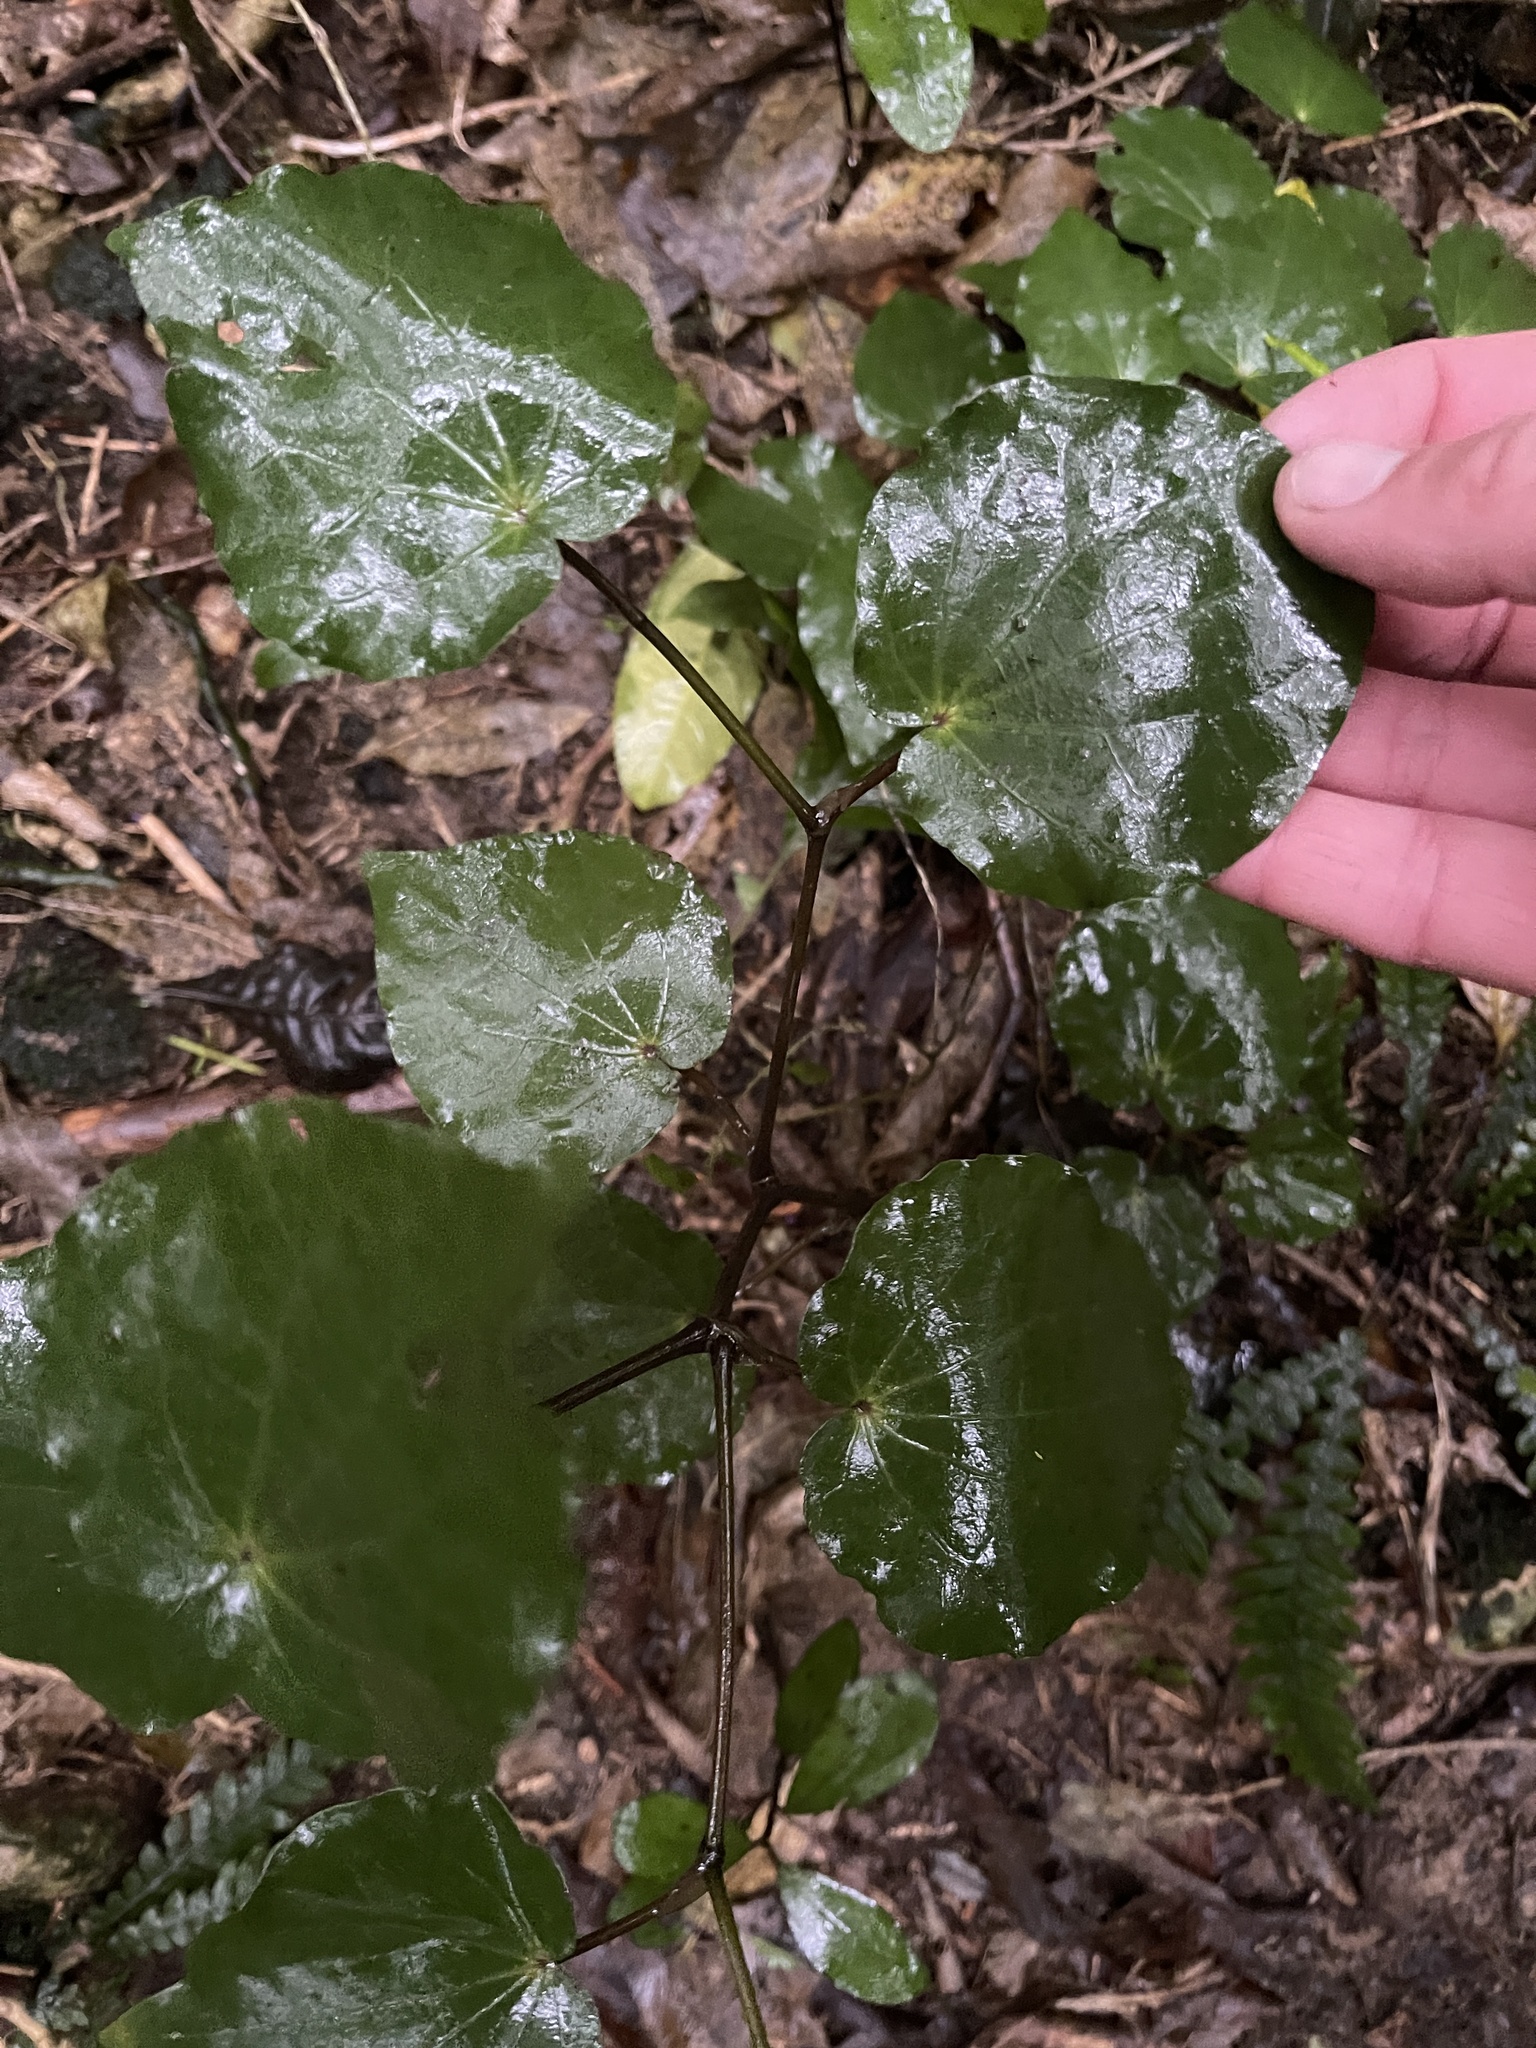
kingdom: Plantae
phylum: Tracheophyta
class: Magnoliopsida
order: Piperales
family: Piperaceae
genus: Macropiper
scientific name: Macropiper excelsum
